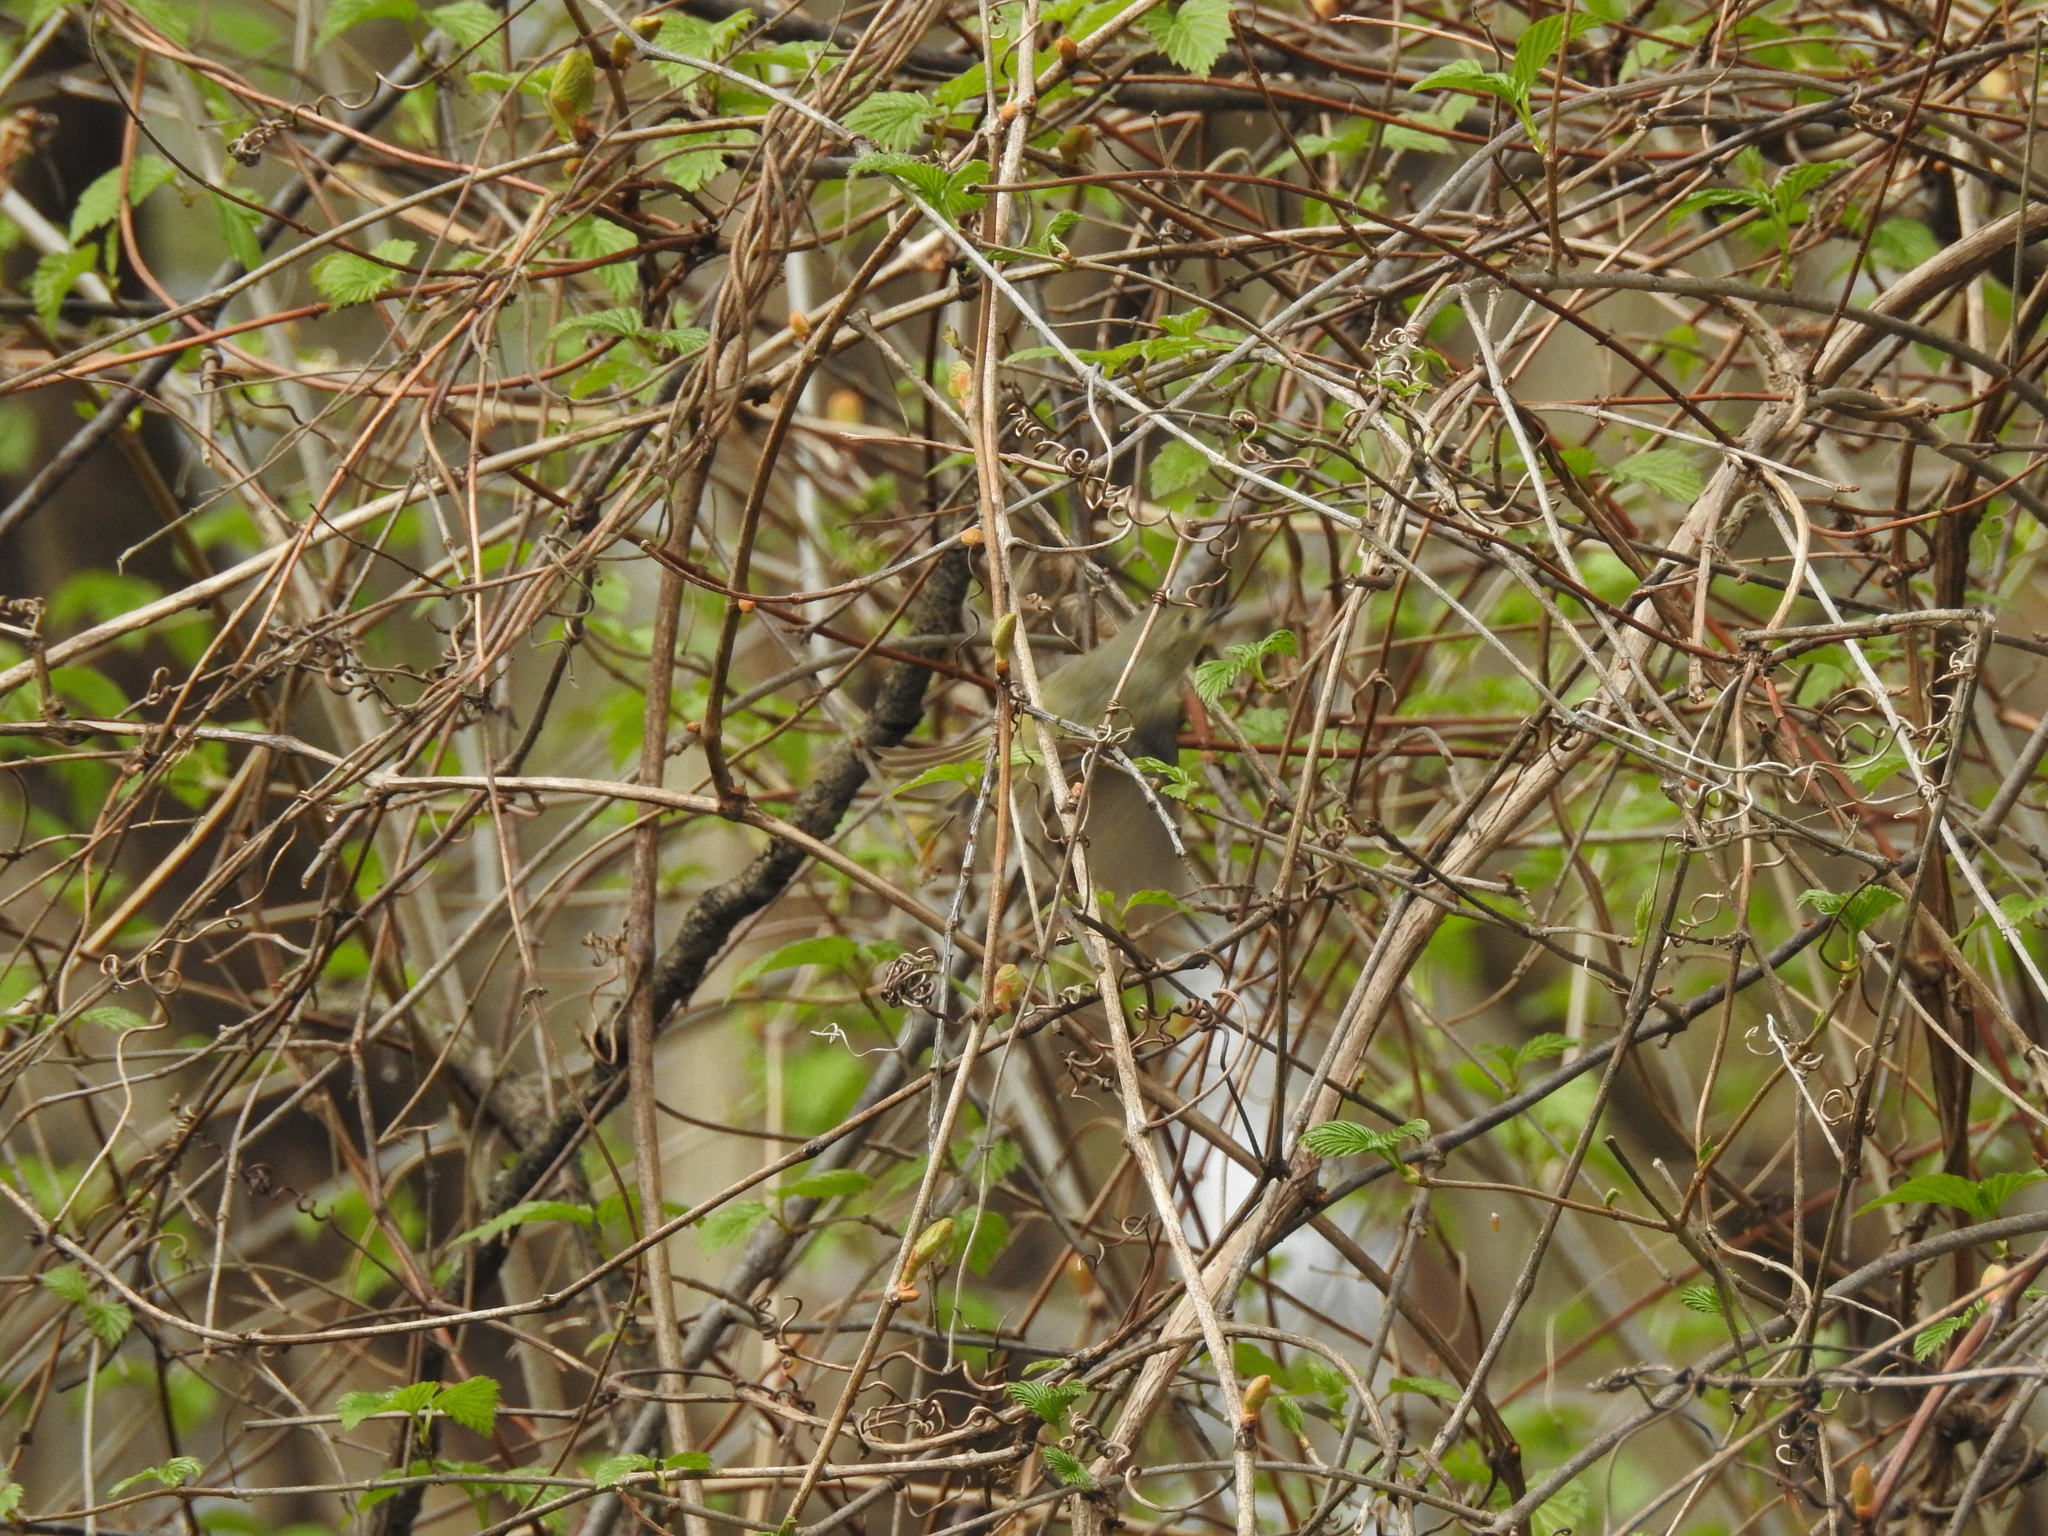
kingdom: Animalia
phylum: Chordata
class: Aves
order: Passeriformes
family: Regulidae
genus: Regulus
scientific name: Regulus calendula
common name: Ruby-crowned kinglet
